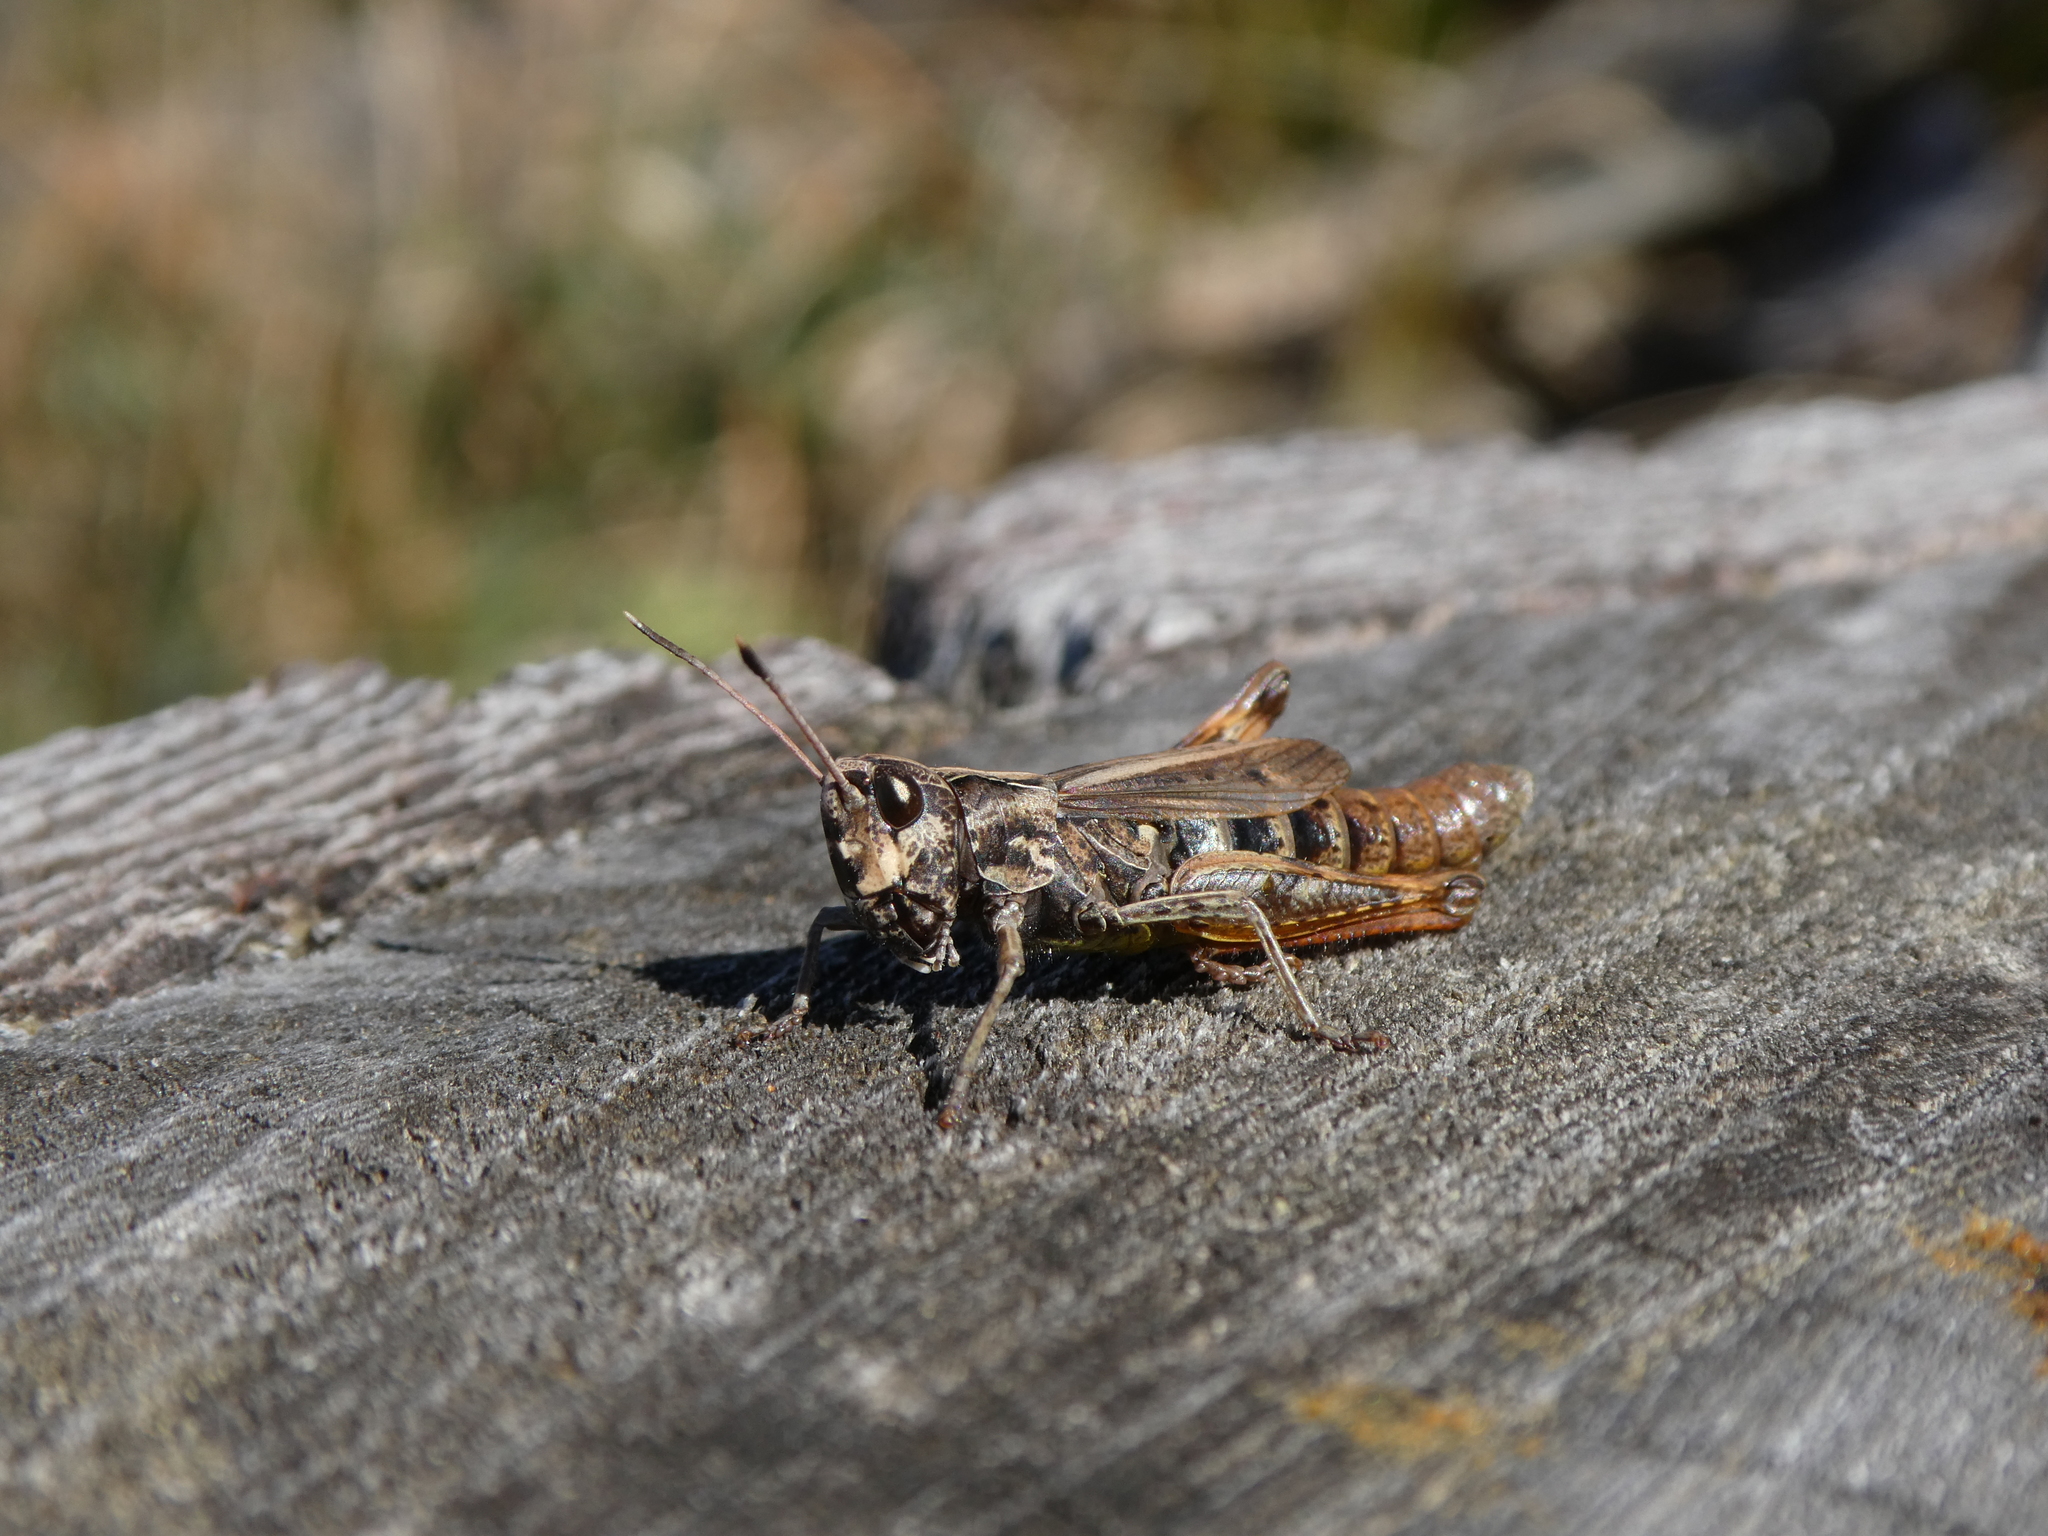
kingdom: Animalia
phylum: Arthropoda
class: Insecta
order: Orthoptera
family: Acrididae
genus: Gomphocerippus
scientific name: Gomphocerippus rufus
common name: Rufous grasshopper
